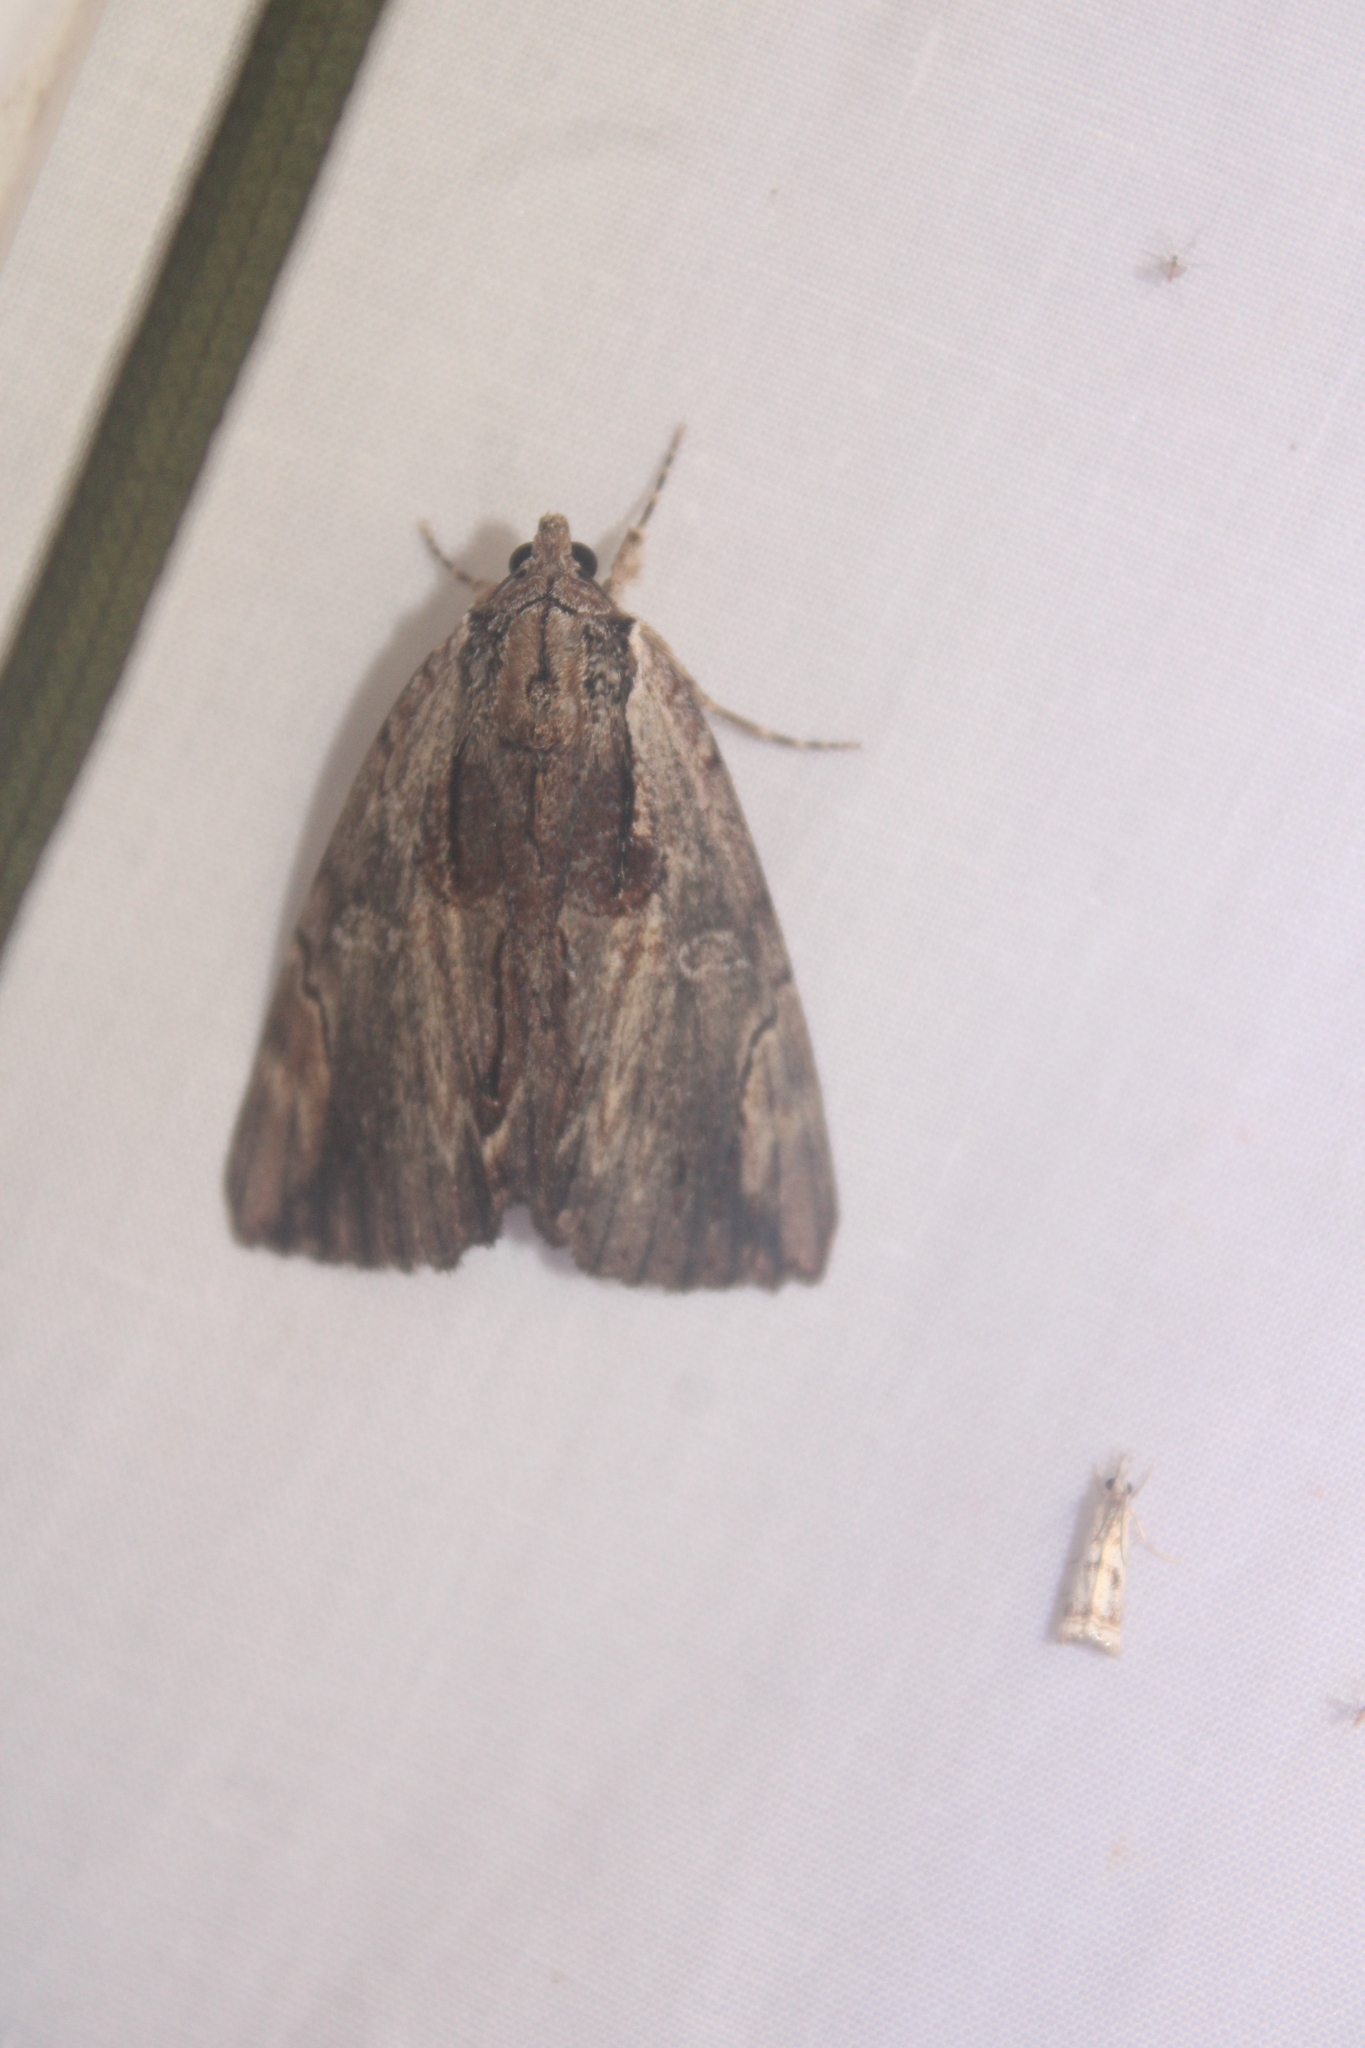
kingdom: Animalia
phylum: Arthropoda
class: Insecta
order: Lepidoptera
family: Erebidae
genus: Catocala
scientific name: Catocala ultronia
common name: Ultronia underwing
